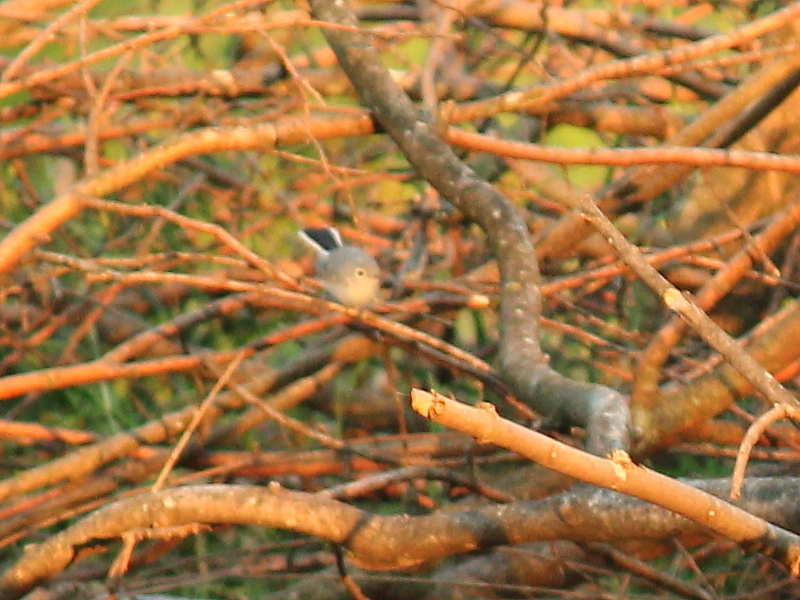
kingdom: Animalia
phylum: Chordata
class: Aves
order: Passeriformes
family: Polioptilidae
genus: Polioptila
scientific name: Polioptila caerulea
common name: Blue-gray gnatcatcher
